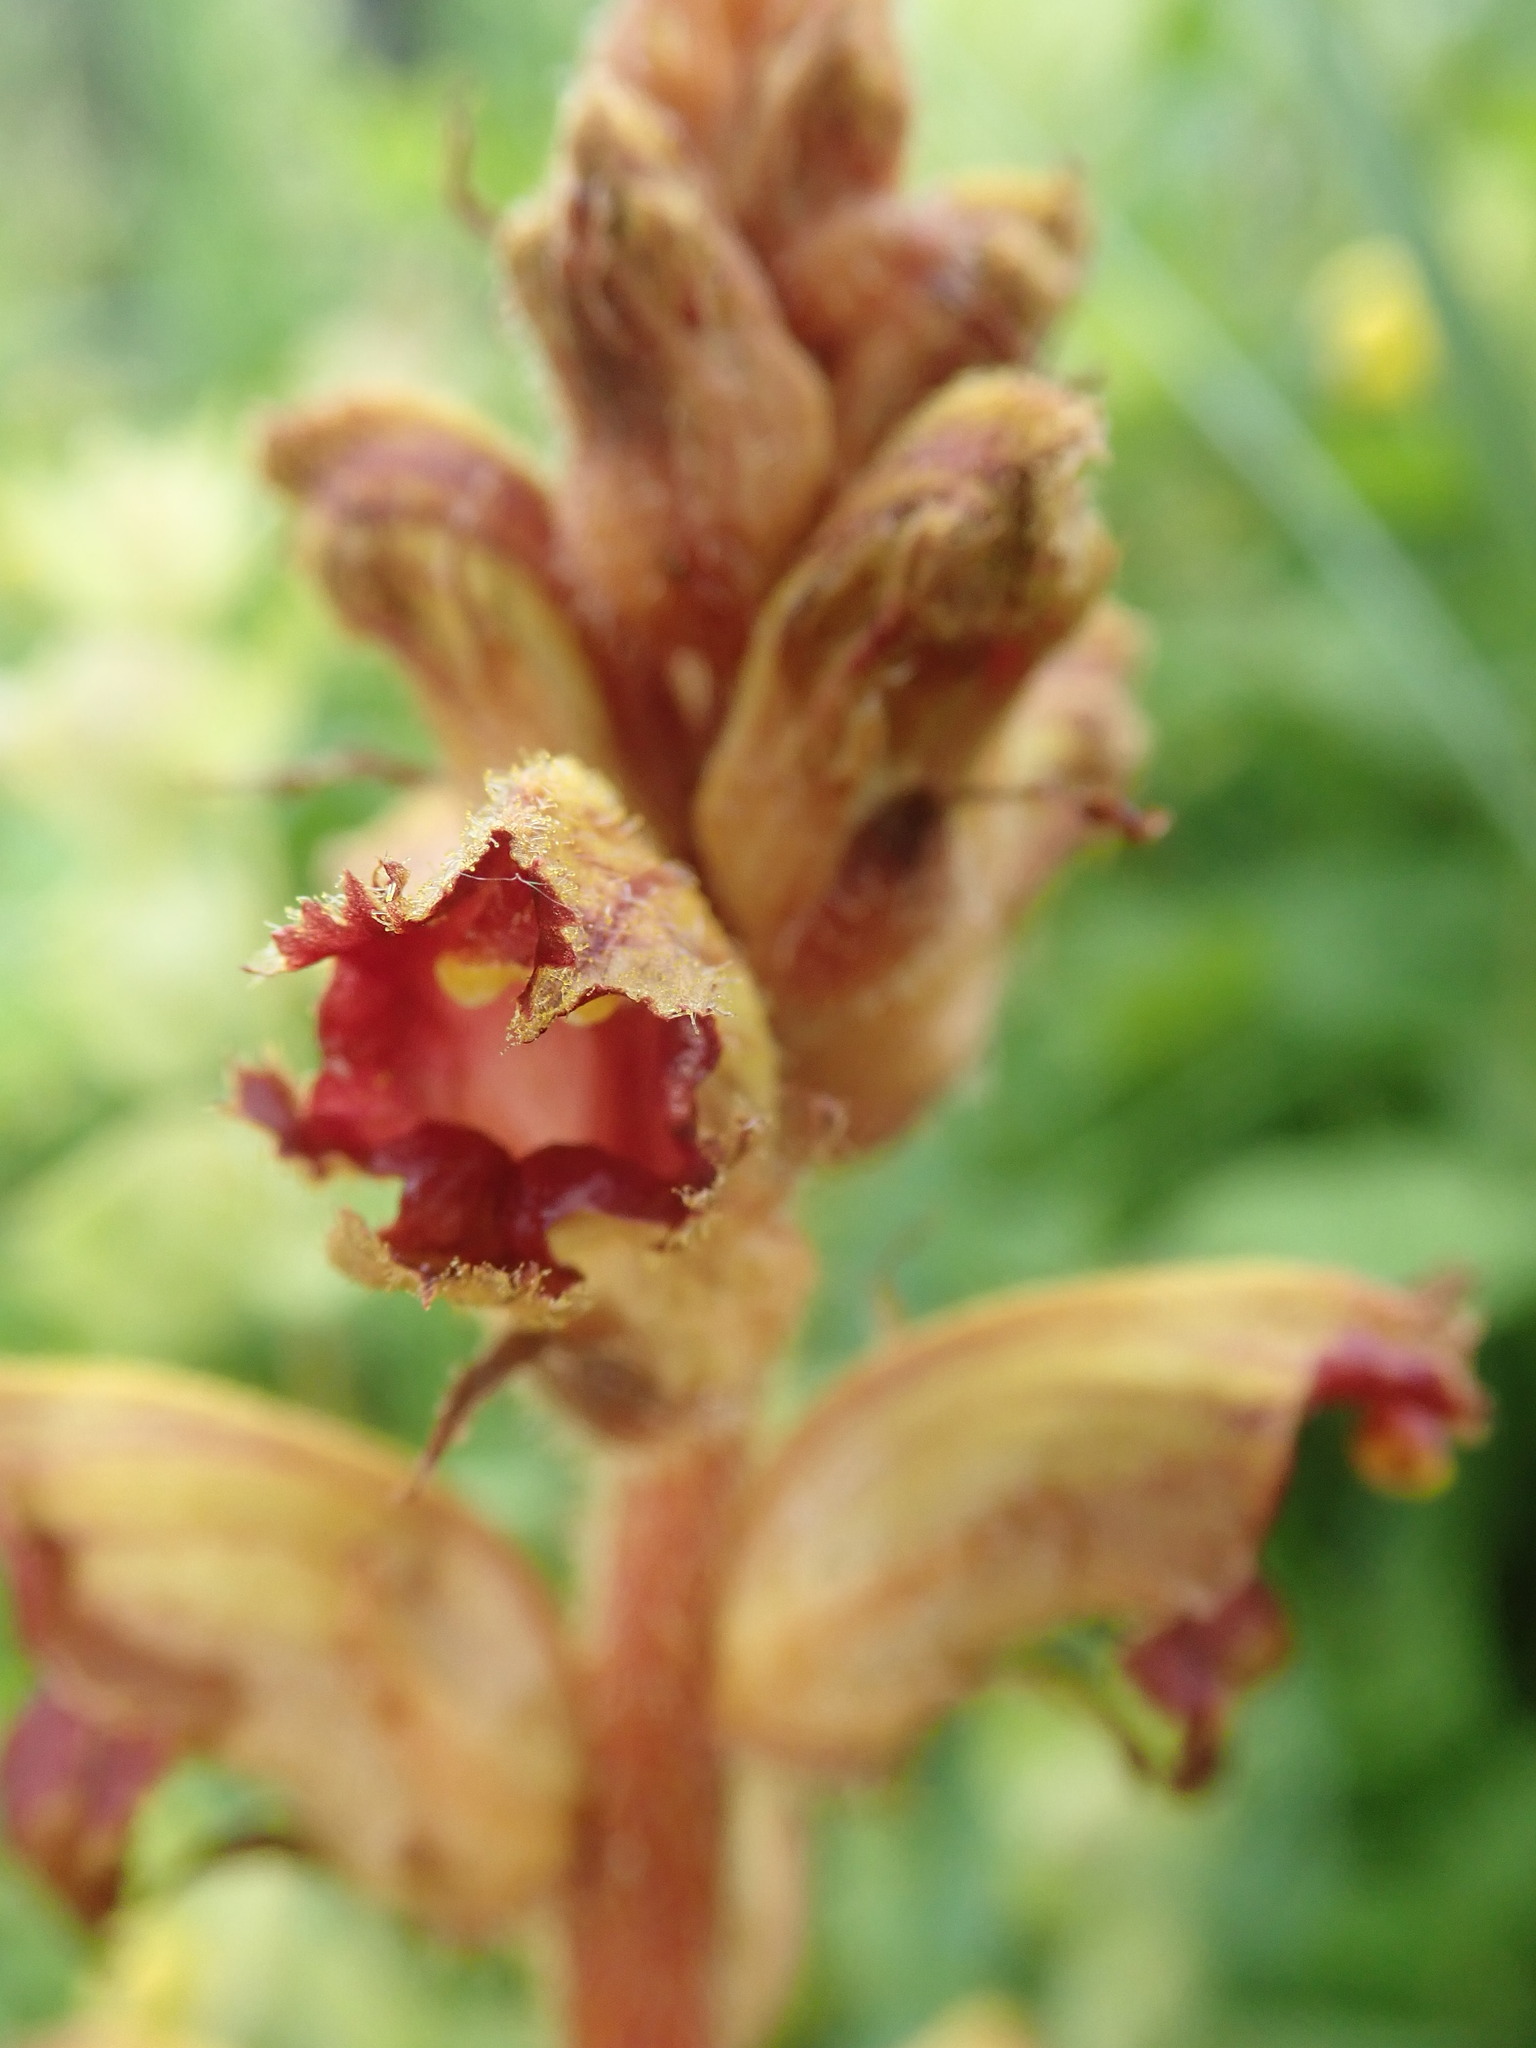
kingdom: Plantae
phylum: Tracheophyta
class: Magnoliopsida
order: Lamiales
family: Orobanchaceae
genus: Orobanche
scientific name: Orobanche gracilis
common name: Slender broomrape
